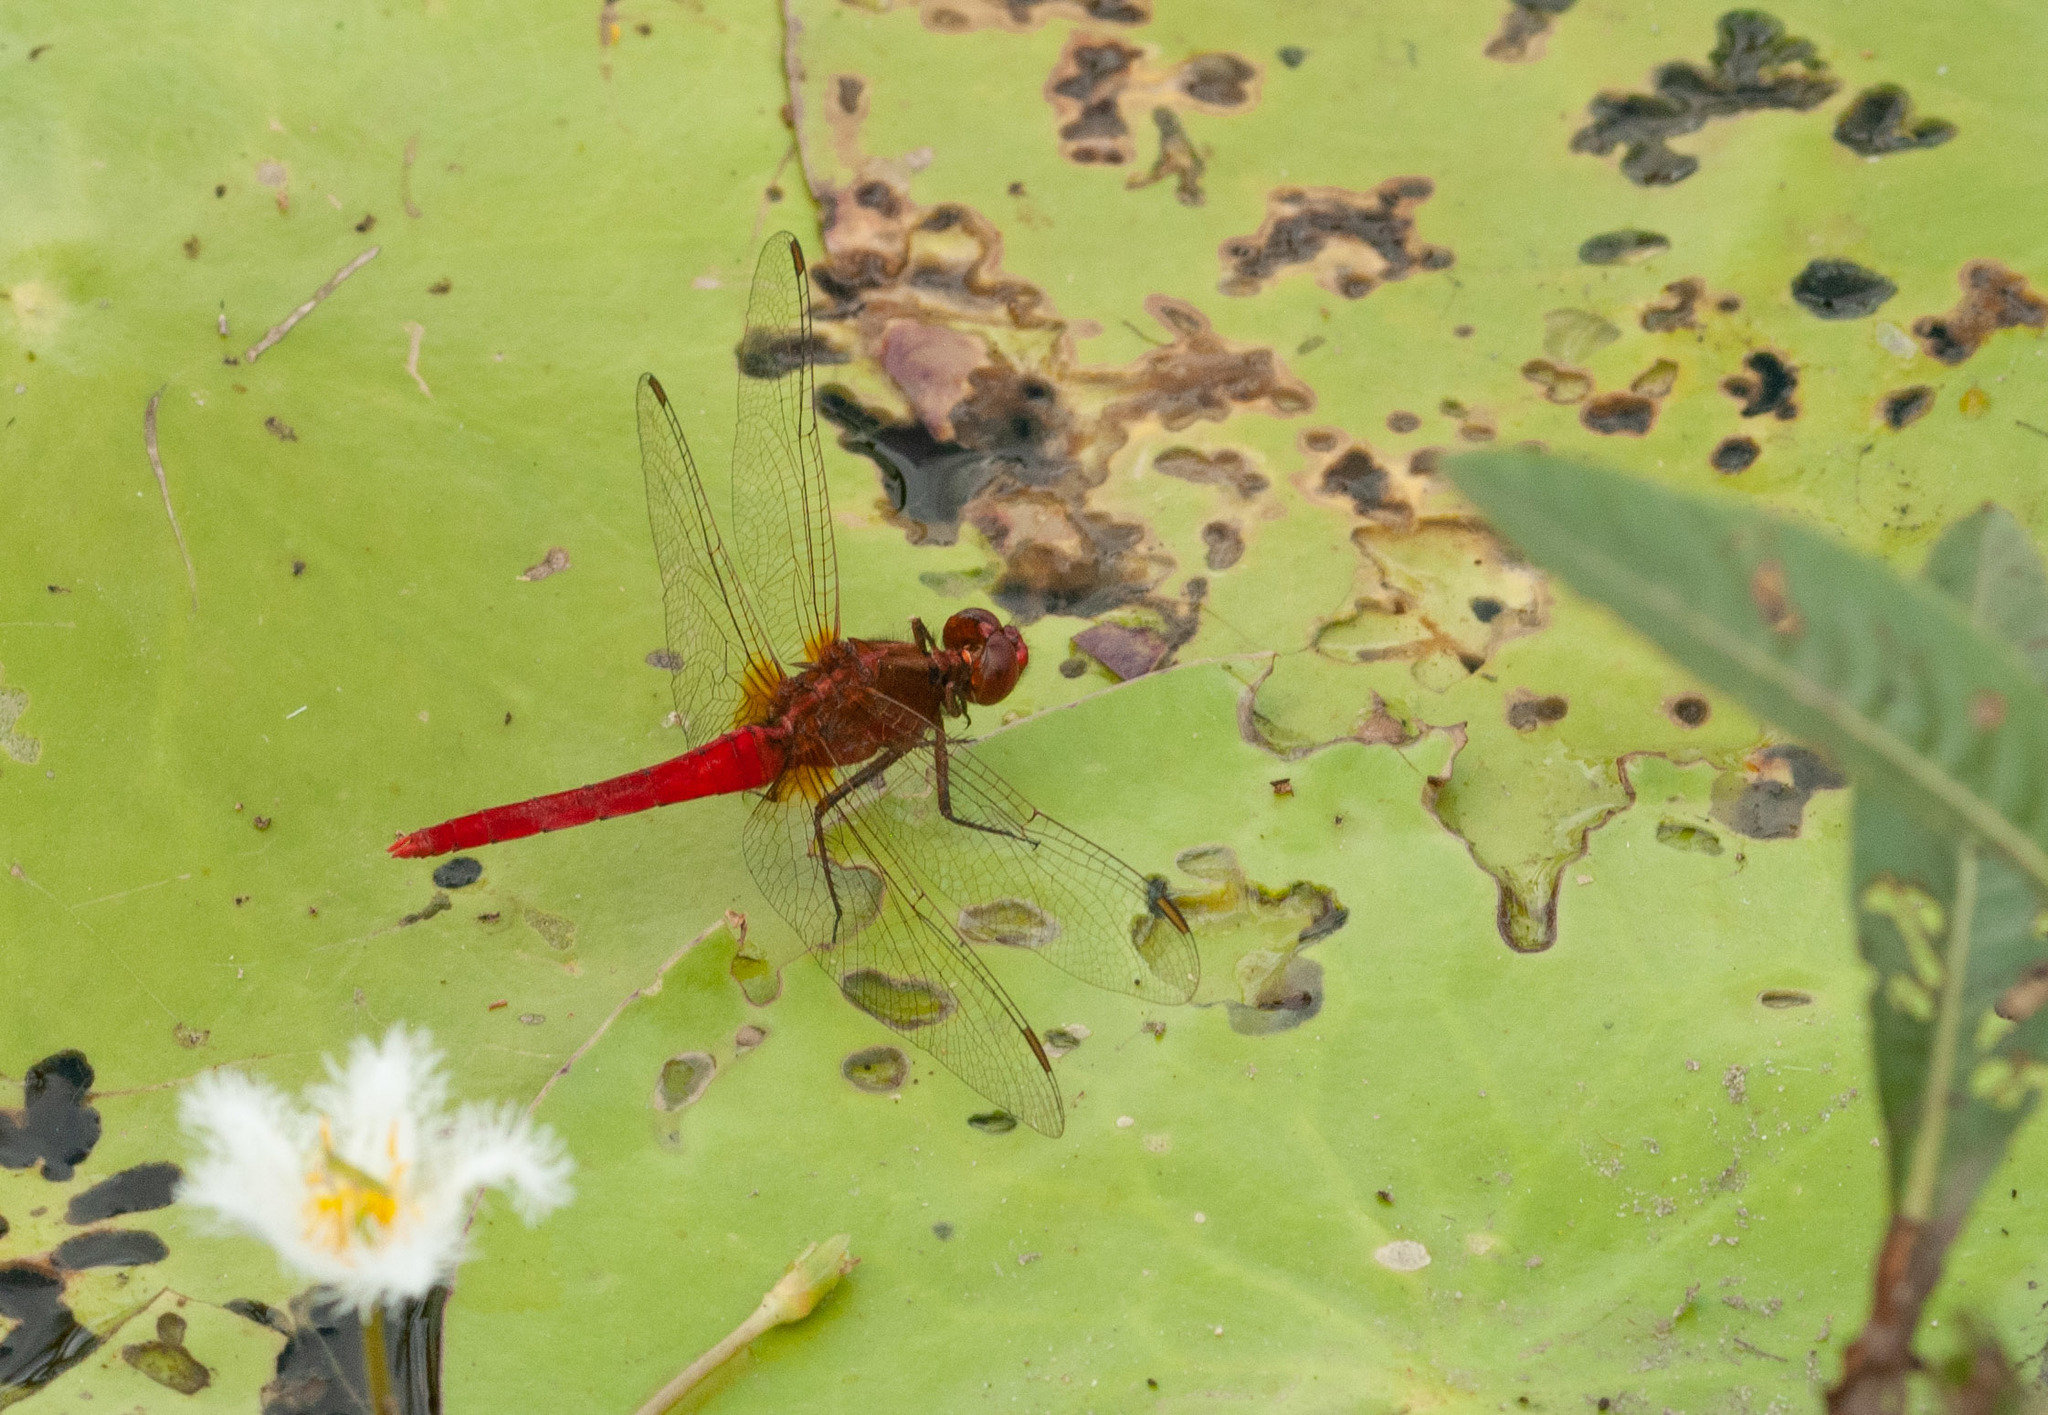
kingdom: Animalia
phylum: Arthropoda
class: Insecta
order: Odonata
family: Libellulidae
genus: Rhodothemis
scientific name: Rhodothemis lieftincki
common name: Red arrow
